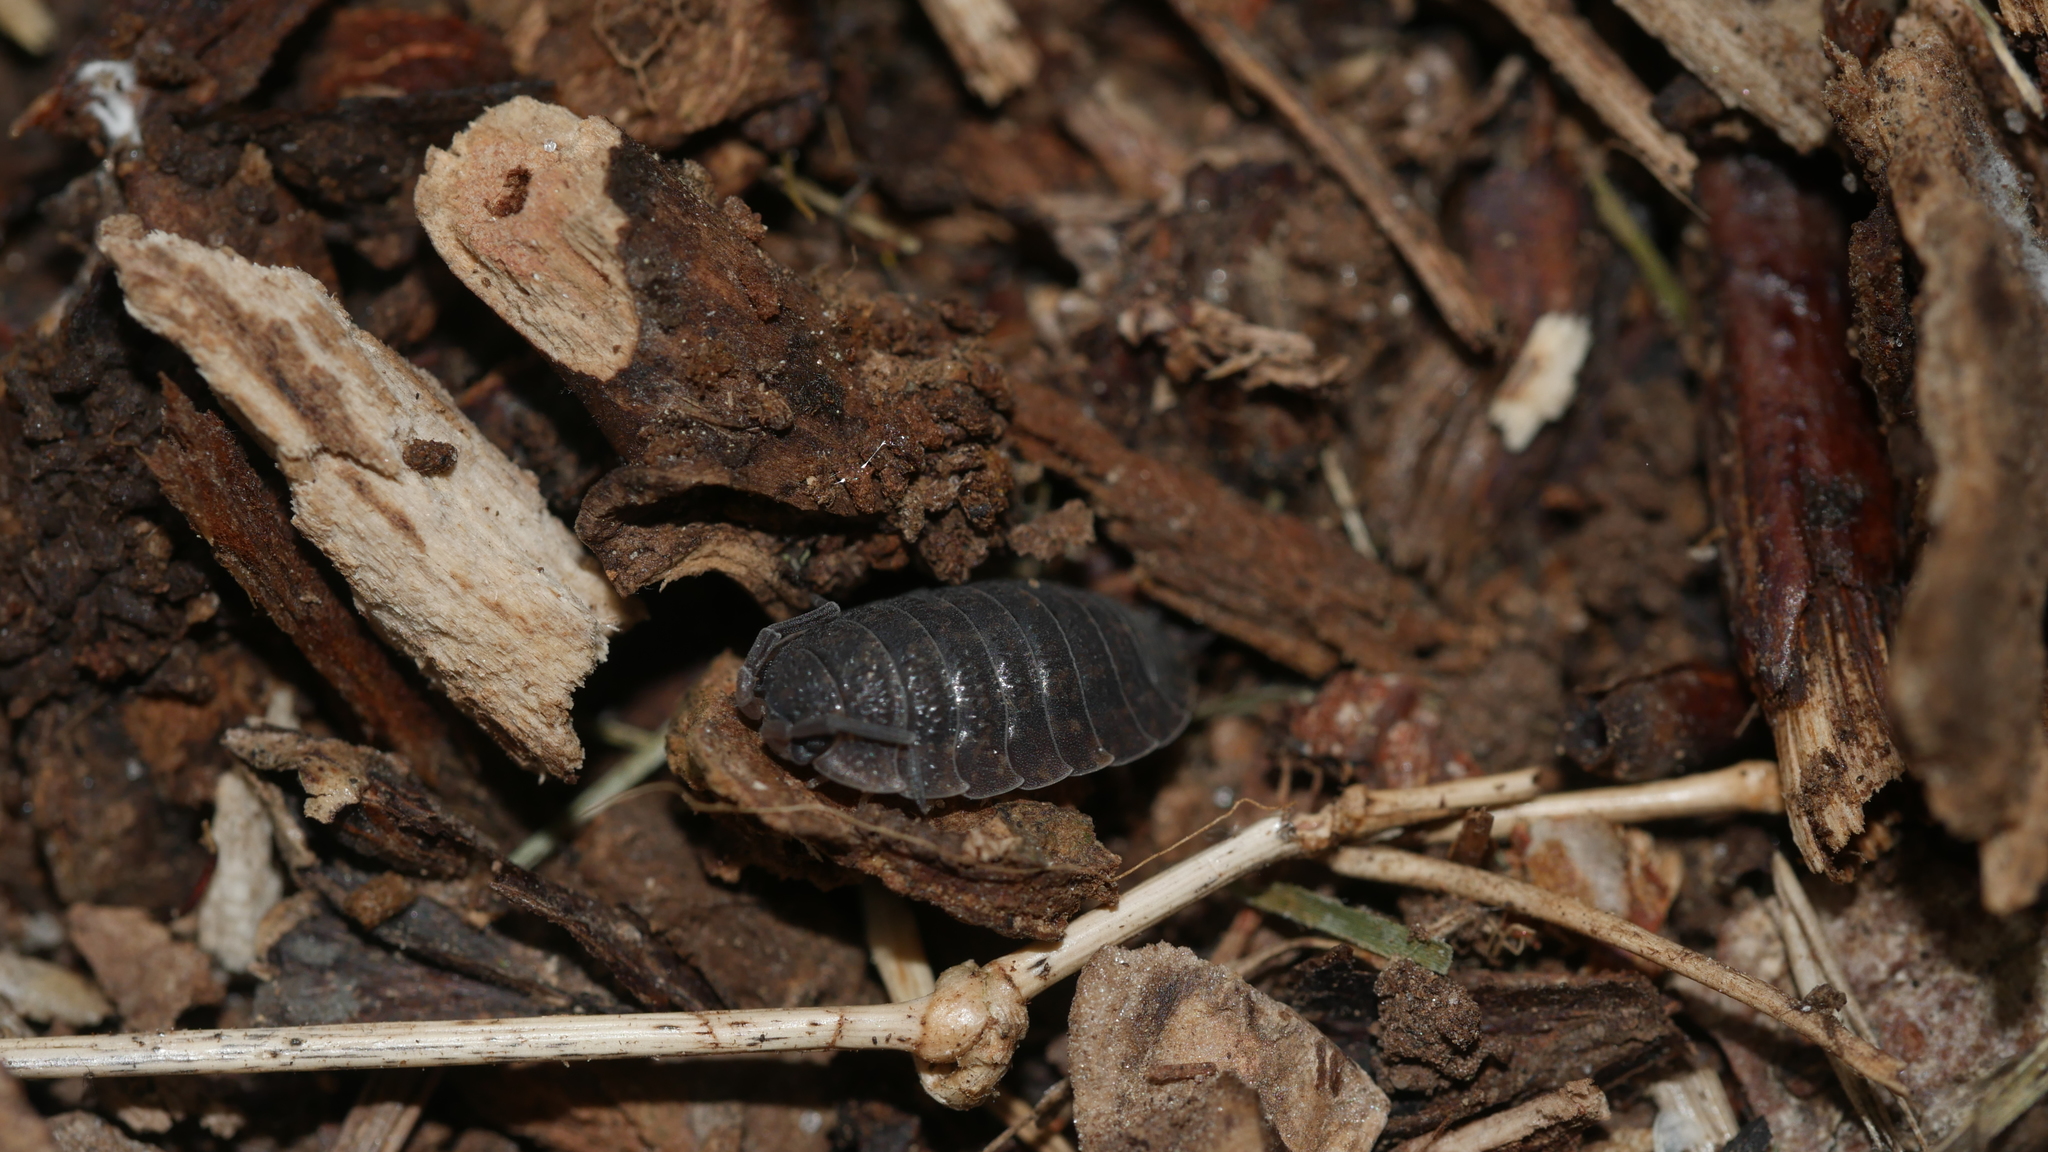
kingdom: Animalia
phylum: Arthropoda
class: Malacostraca
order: Isopoda
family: Porcellionidae
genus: Porcellio
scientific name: Porcellio scaber
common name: Common rough woodlouse
